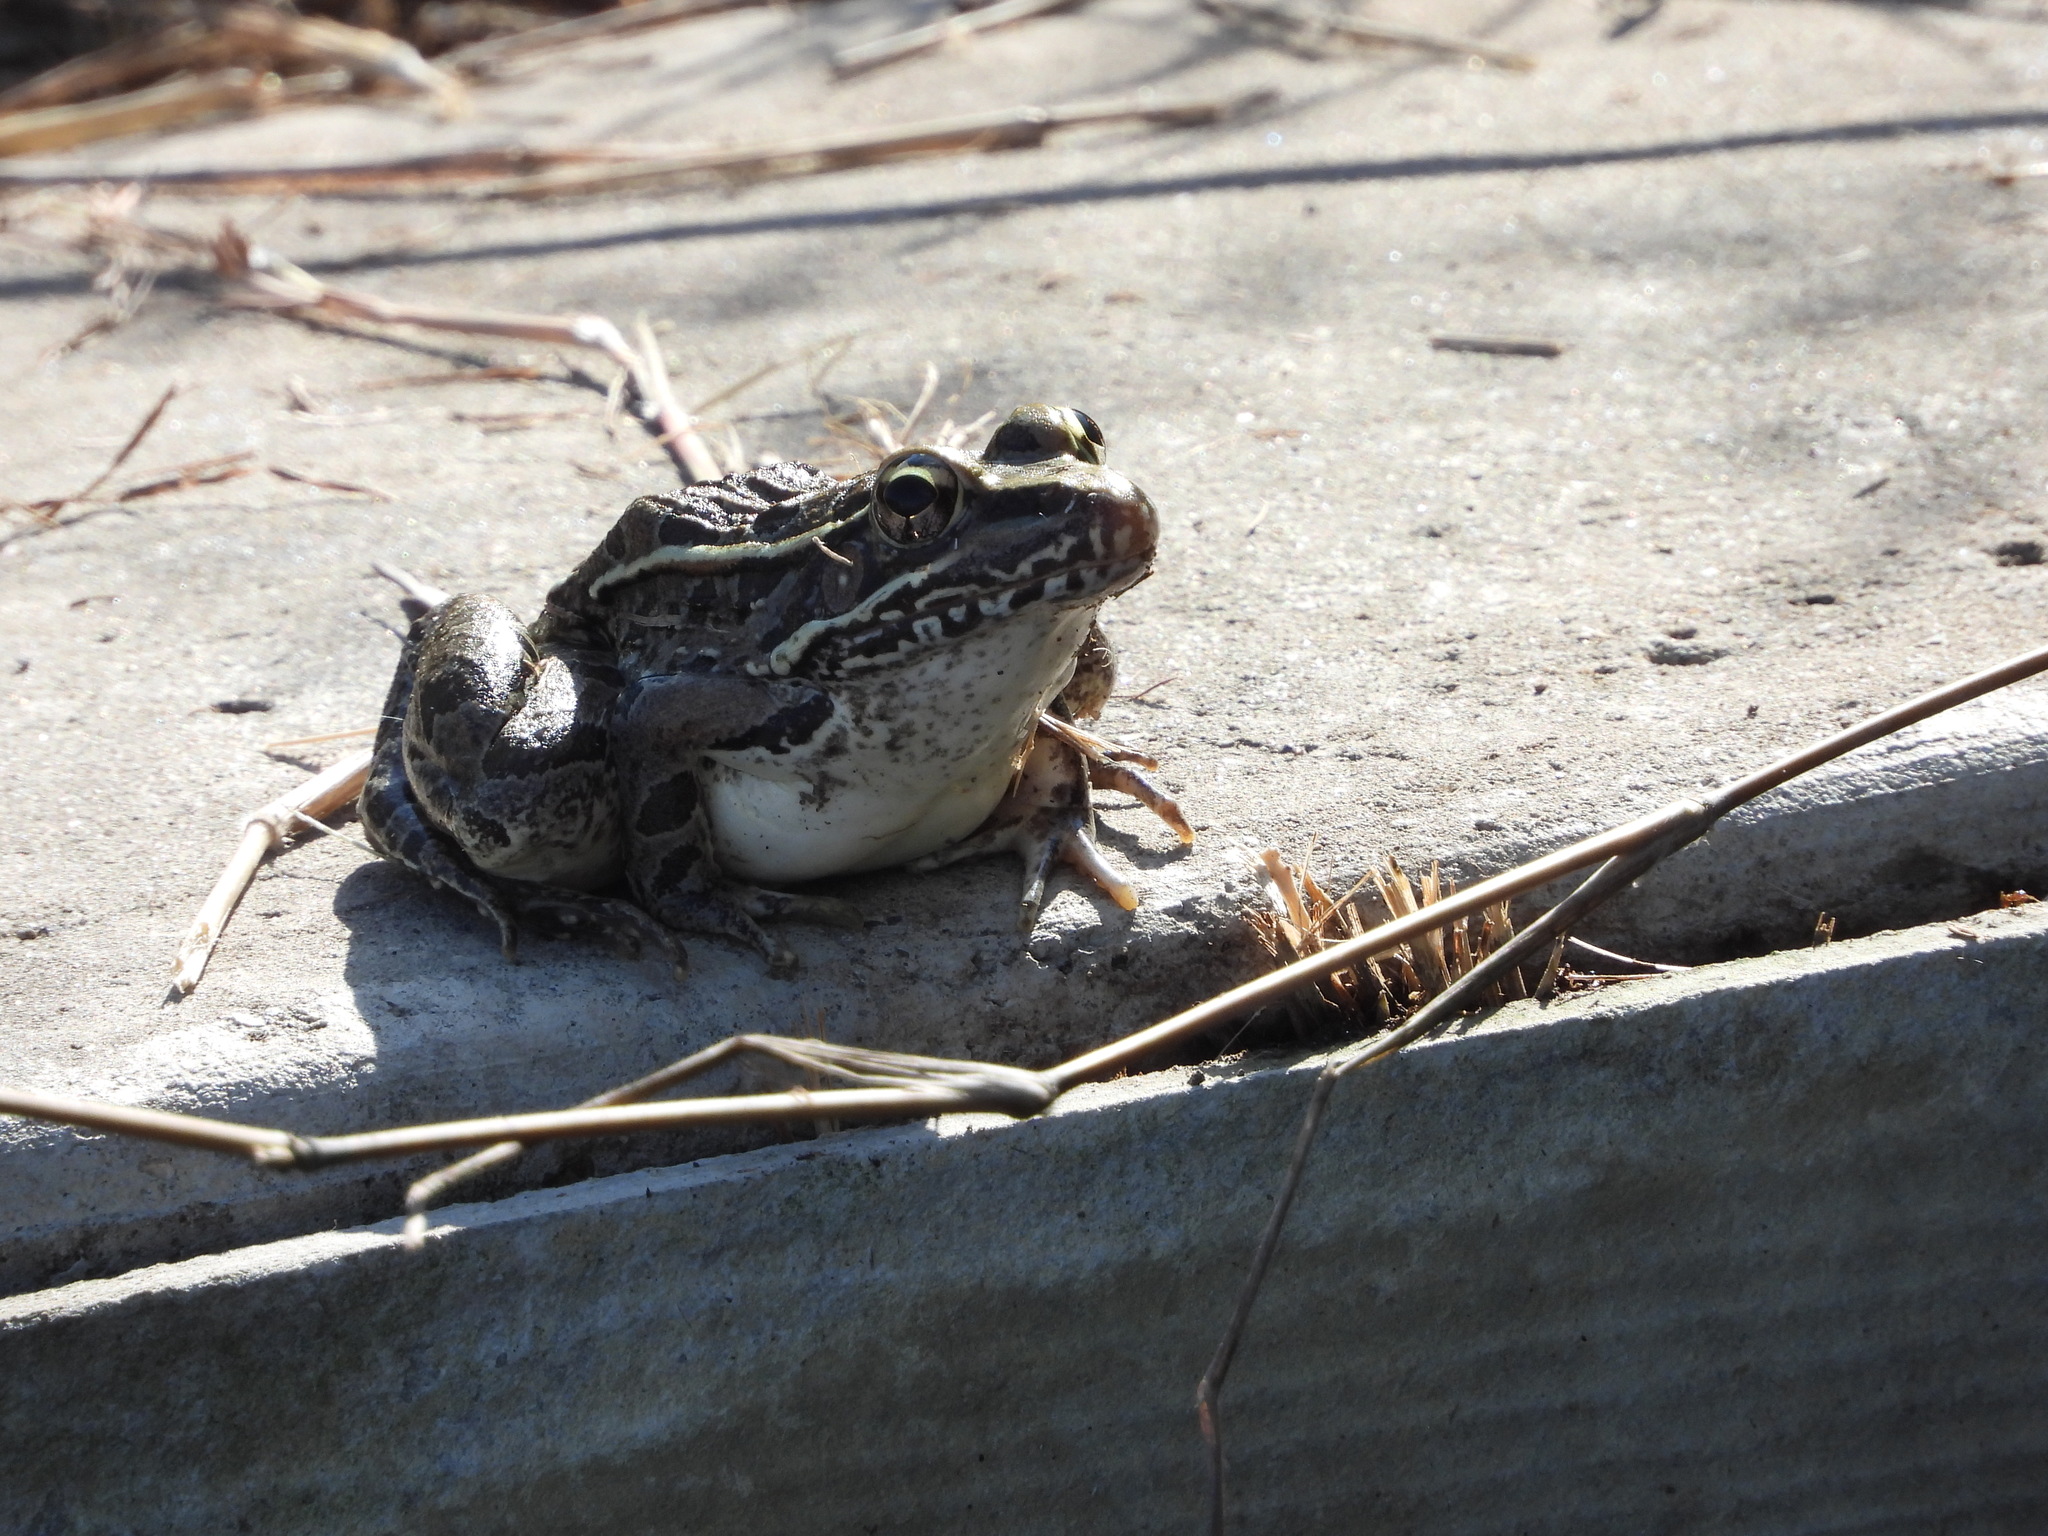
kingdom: Animalia
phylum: Chordata
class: Amphibia
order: Anura
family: Ranidae
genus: Lithobates
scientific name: Lithobates berlandieri
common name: Rio grande leopard frog
